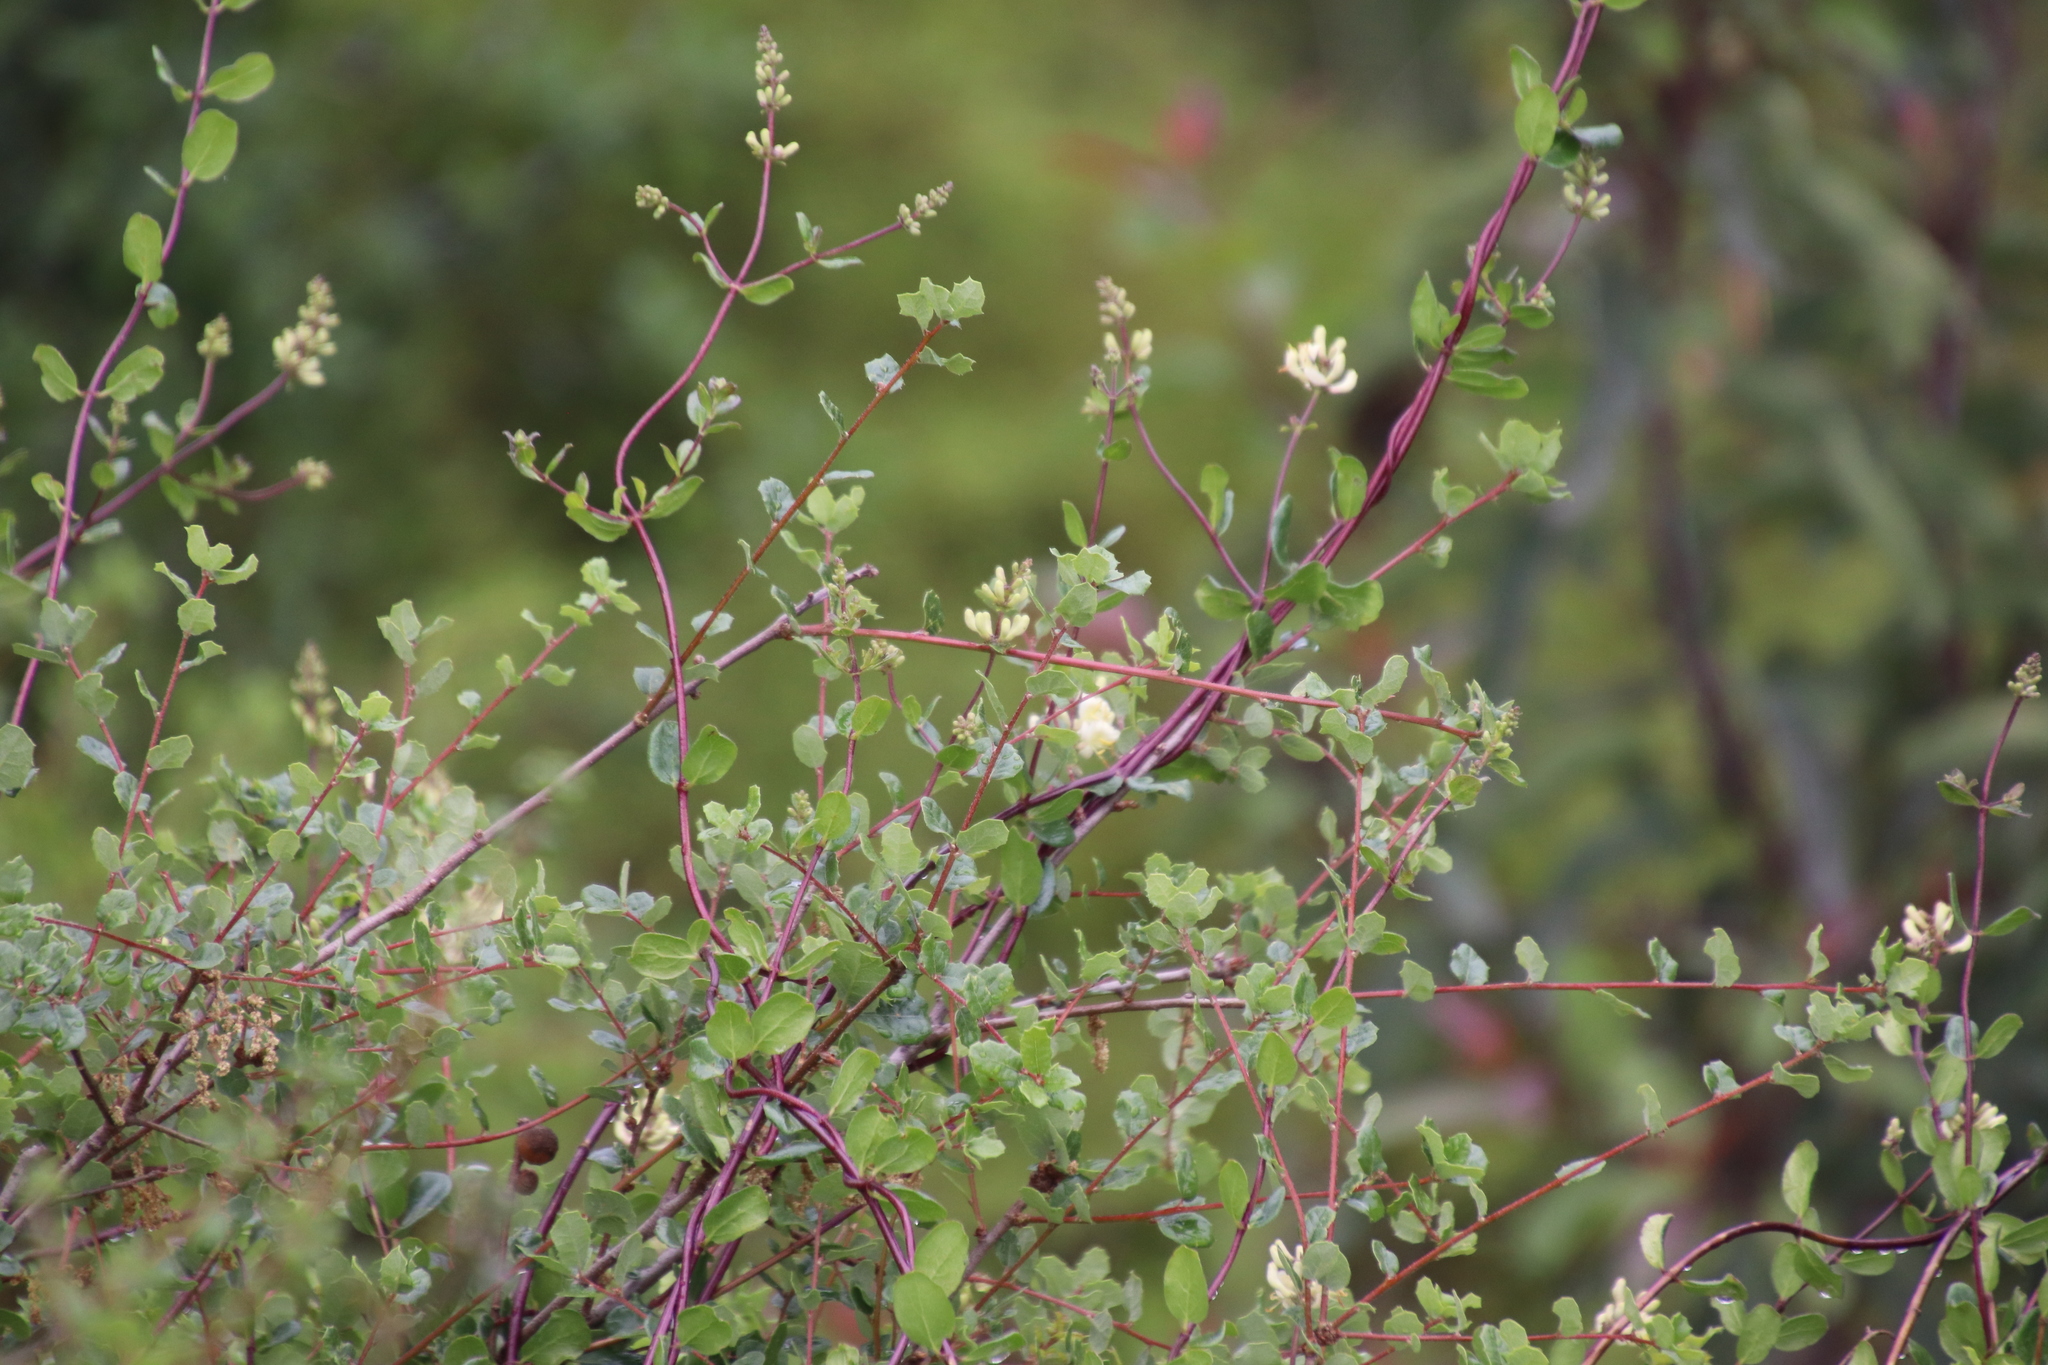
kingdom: Plantae
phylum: Tracheophyta
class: Magnoliopsida
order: Dipsacales
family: Caprifoliaceae
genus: Lonicera
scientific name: Lonicera subspicata
